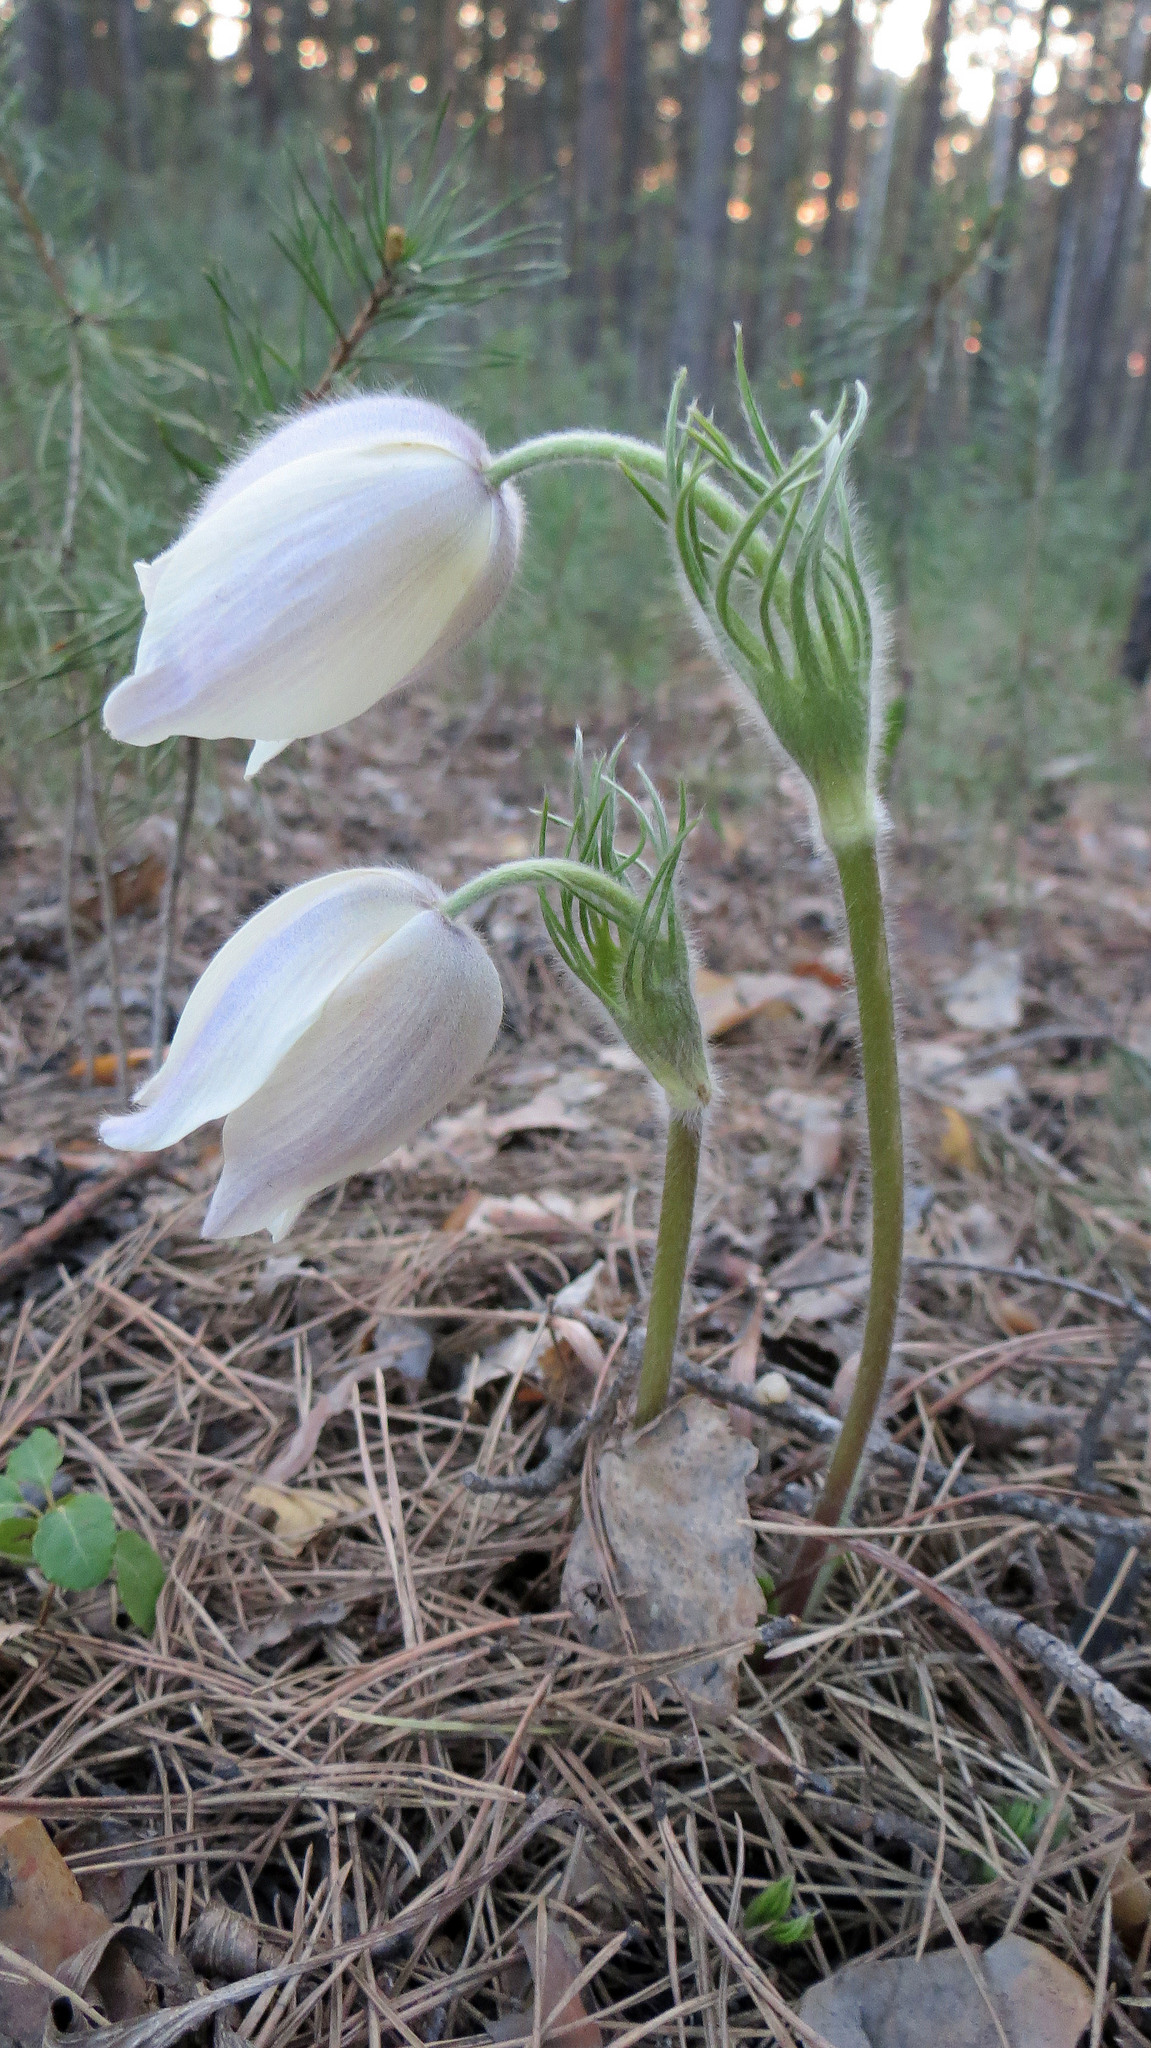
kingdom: Plantae
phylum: Tracheophyta
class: Magnoliopsida
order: Ranunculales
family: Ranunculaceae
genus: Pulsatilla
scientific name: Pulsatilla patens
